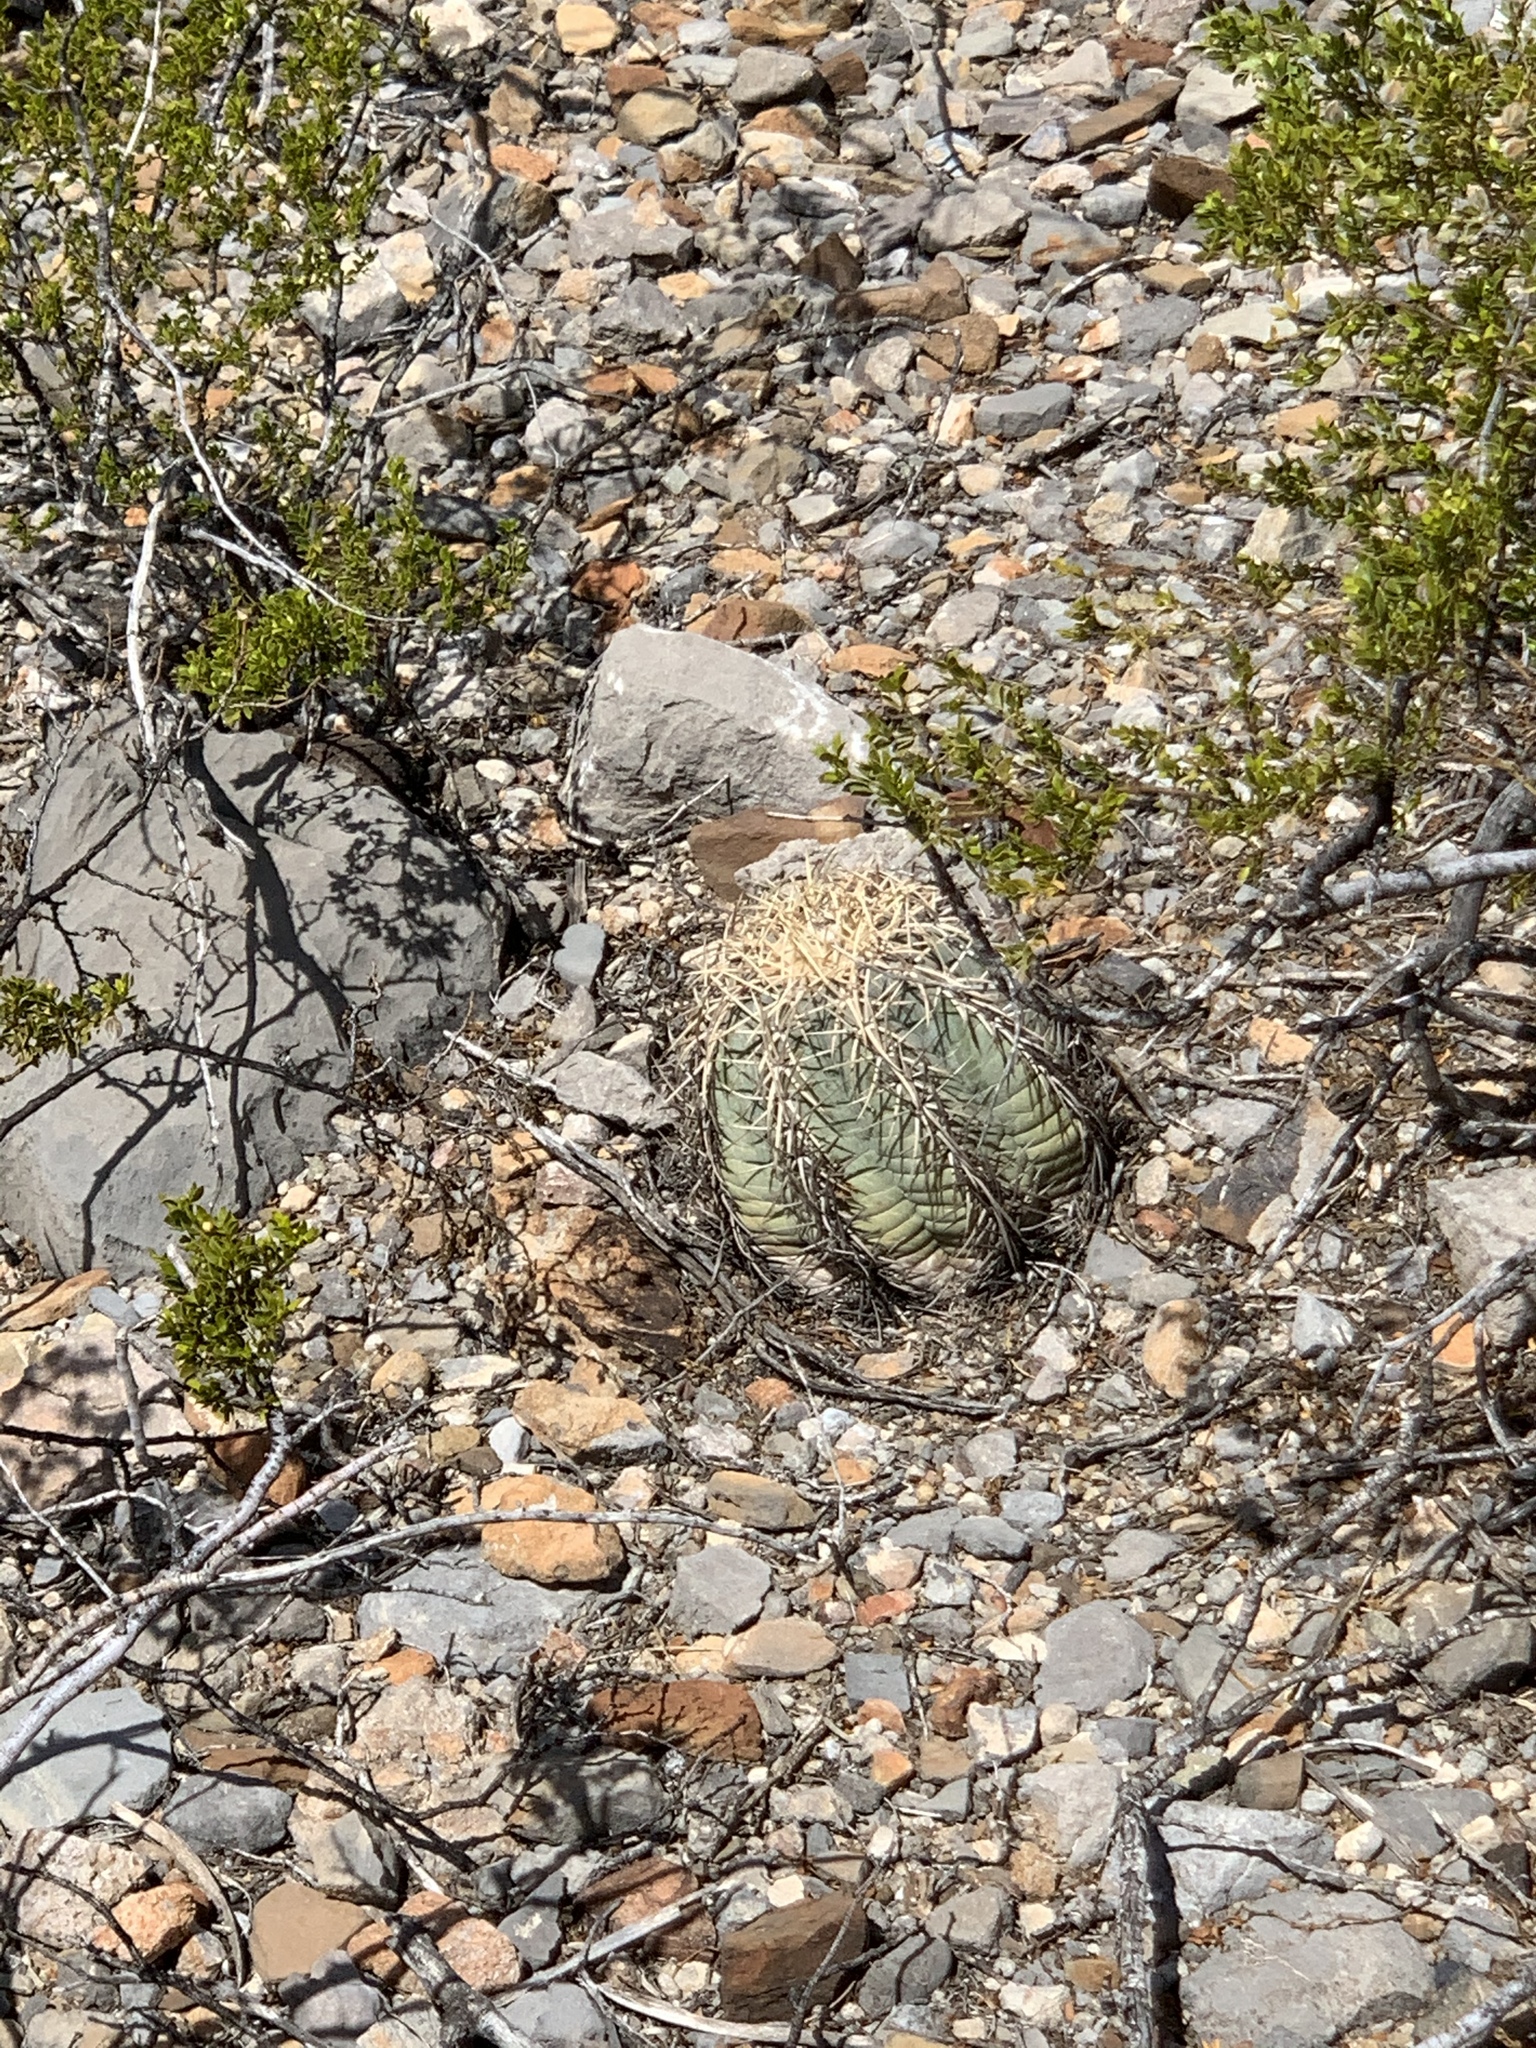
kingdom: Plantae
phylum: Tracheophyta
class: Magnoliopsida
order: Caryophyllales
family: Cactaceae
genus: Echinocactus
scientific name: Echinocactus horizonthalonius
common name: Devilshead
